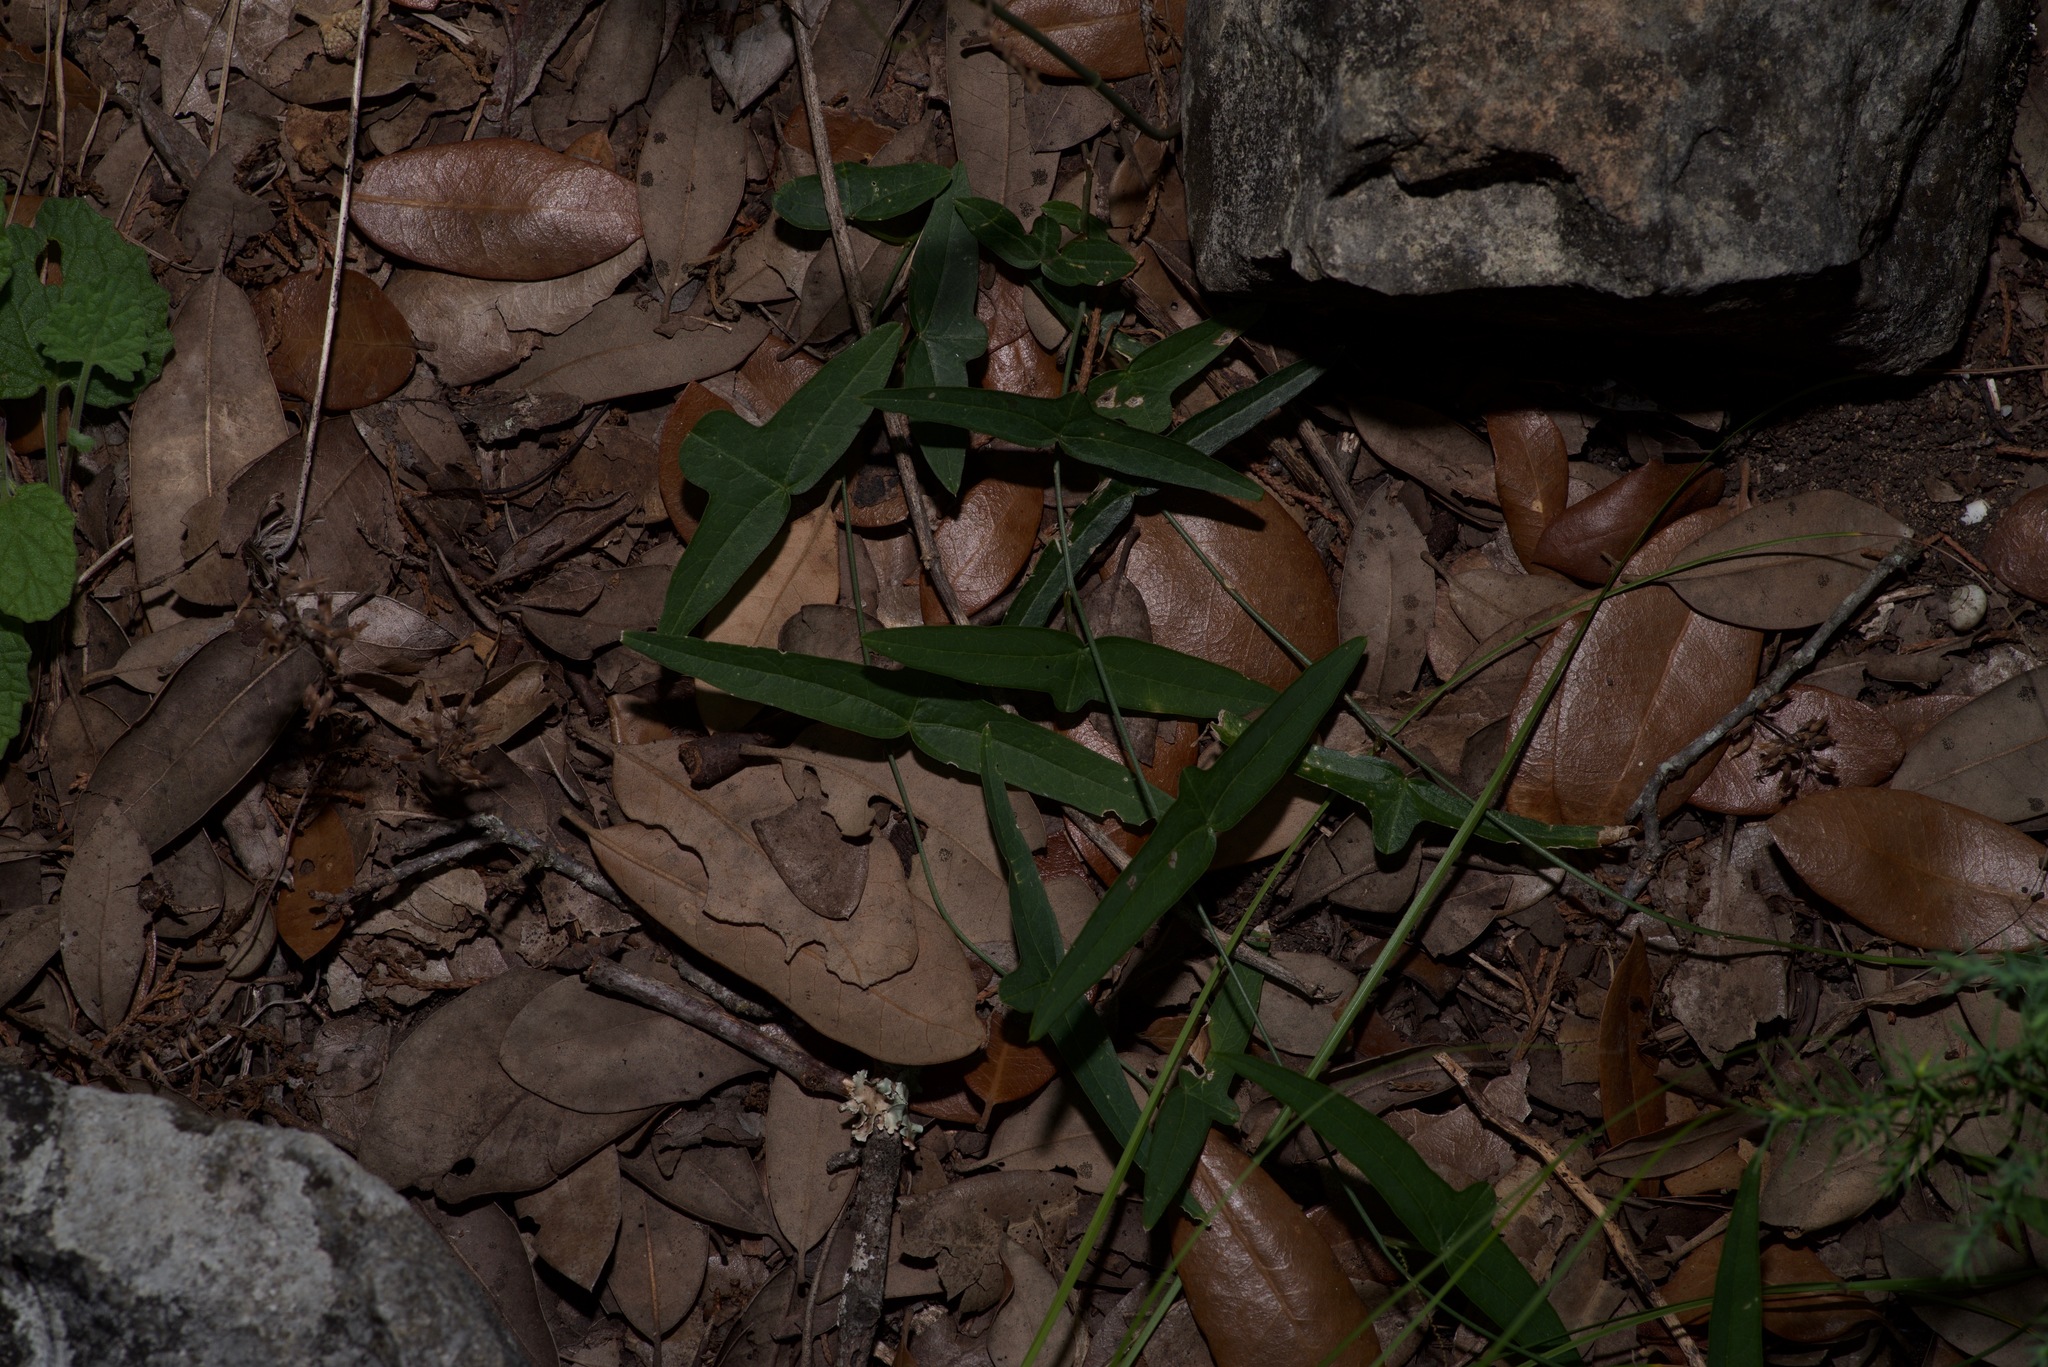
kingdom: Plantae
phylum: Tracheophyta
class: Magnoliopsida
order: Malpighiales
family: Passifloraceae
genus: Passiflora
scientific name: Passiflora tenuiloba
